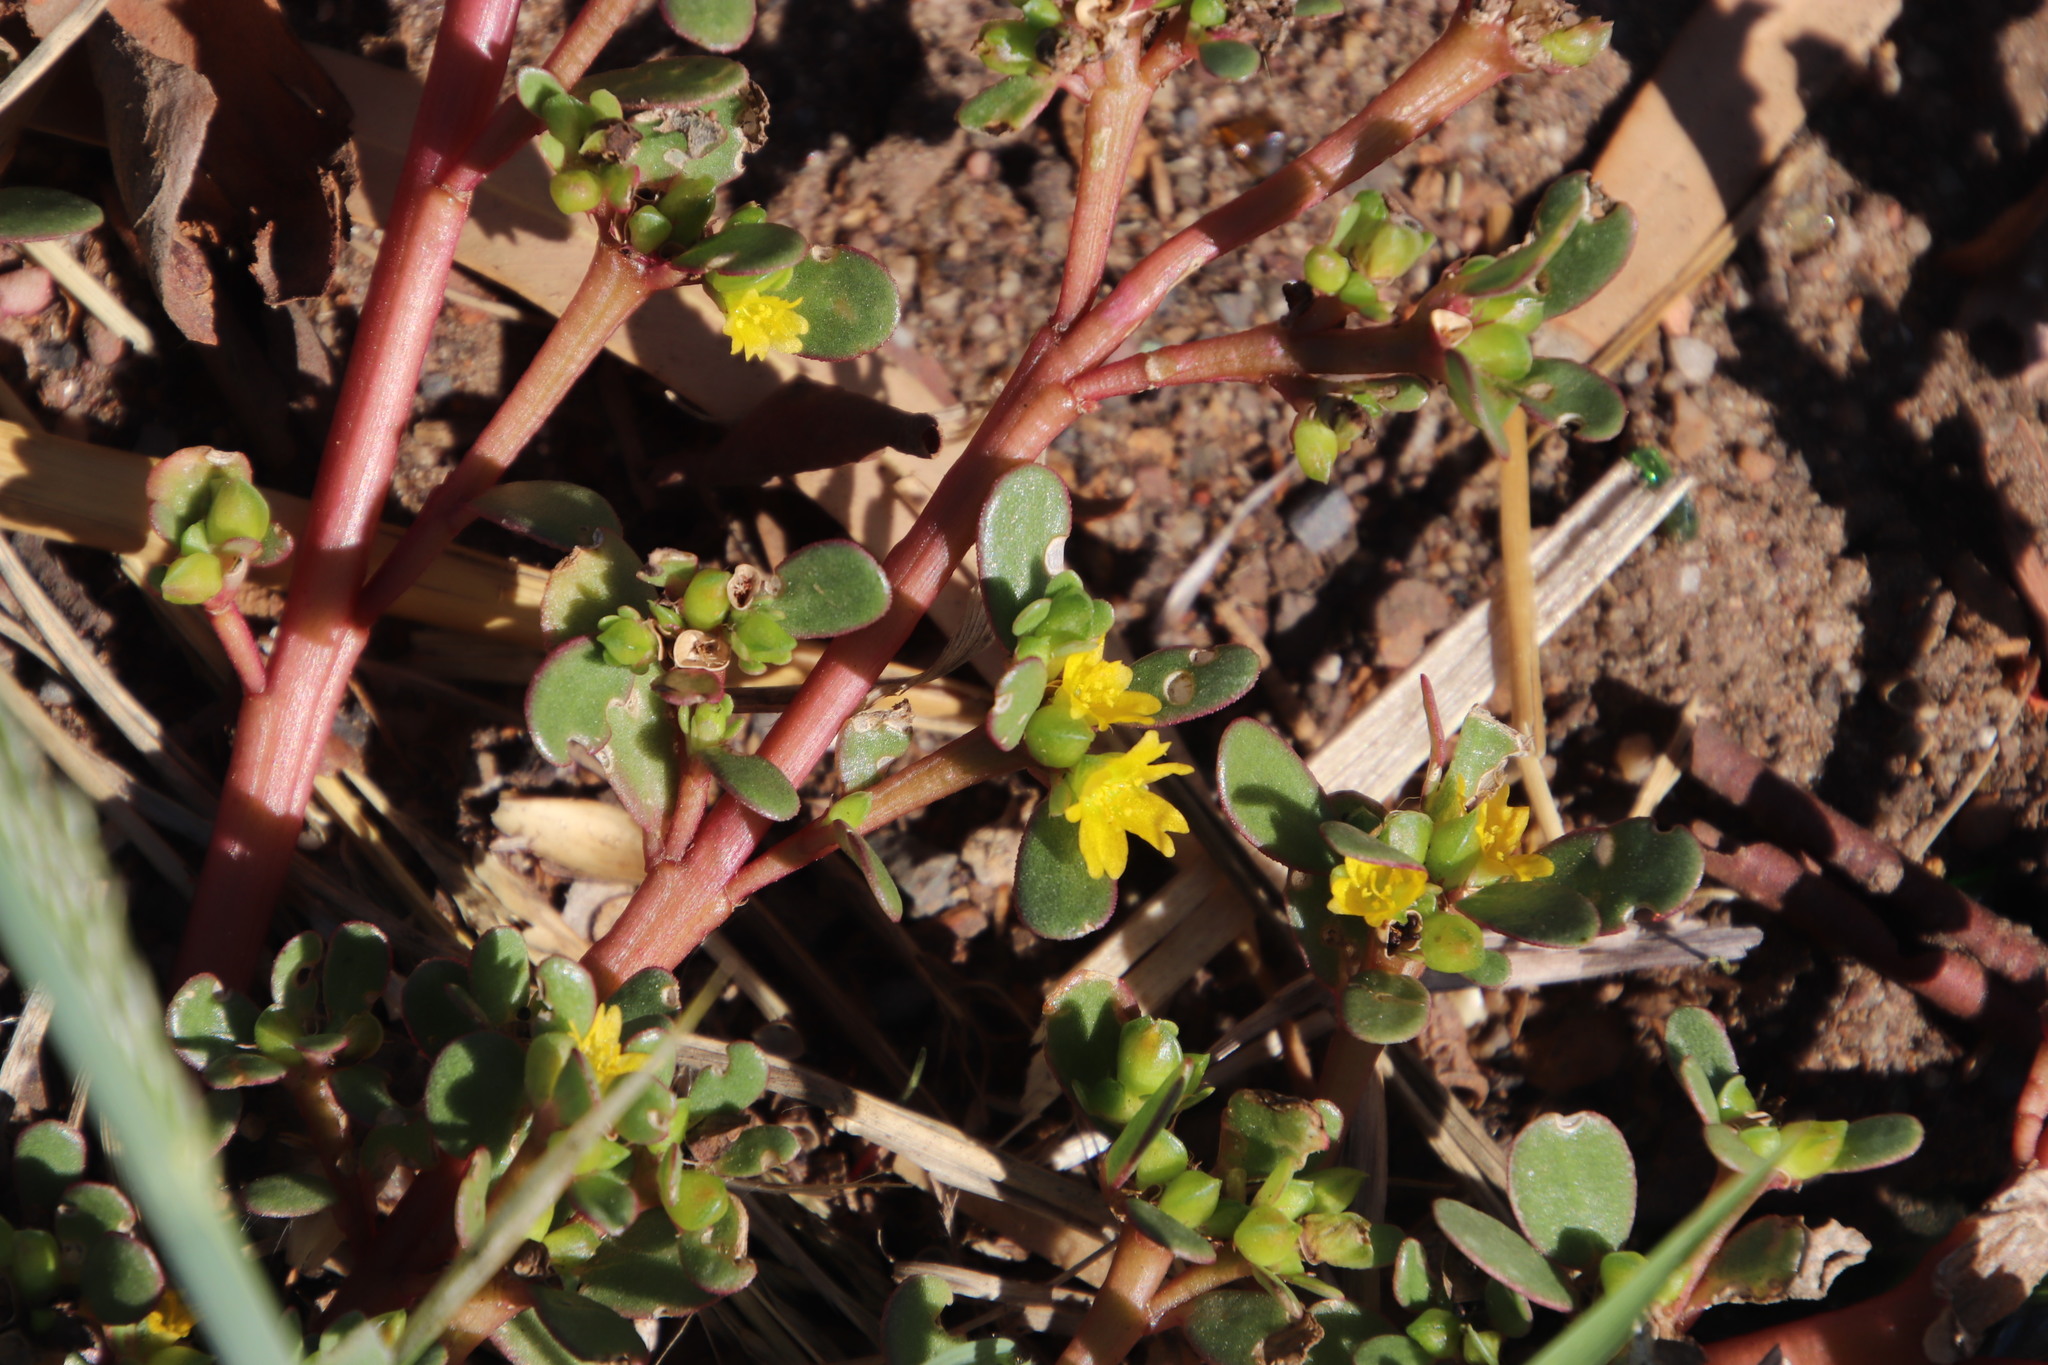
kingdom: Plantae
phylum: Tracheophyta
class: Magnoliopsida
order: Caryophyllales
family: Portulacaceae
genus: Portulaca
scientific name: Portulaca oleracea
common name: Common purslane
